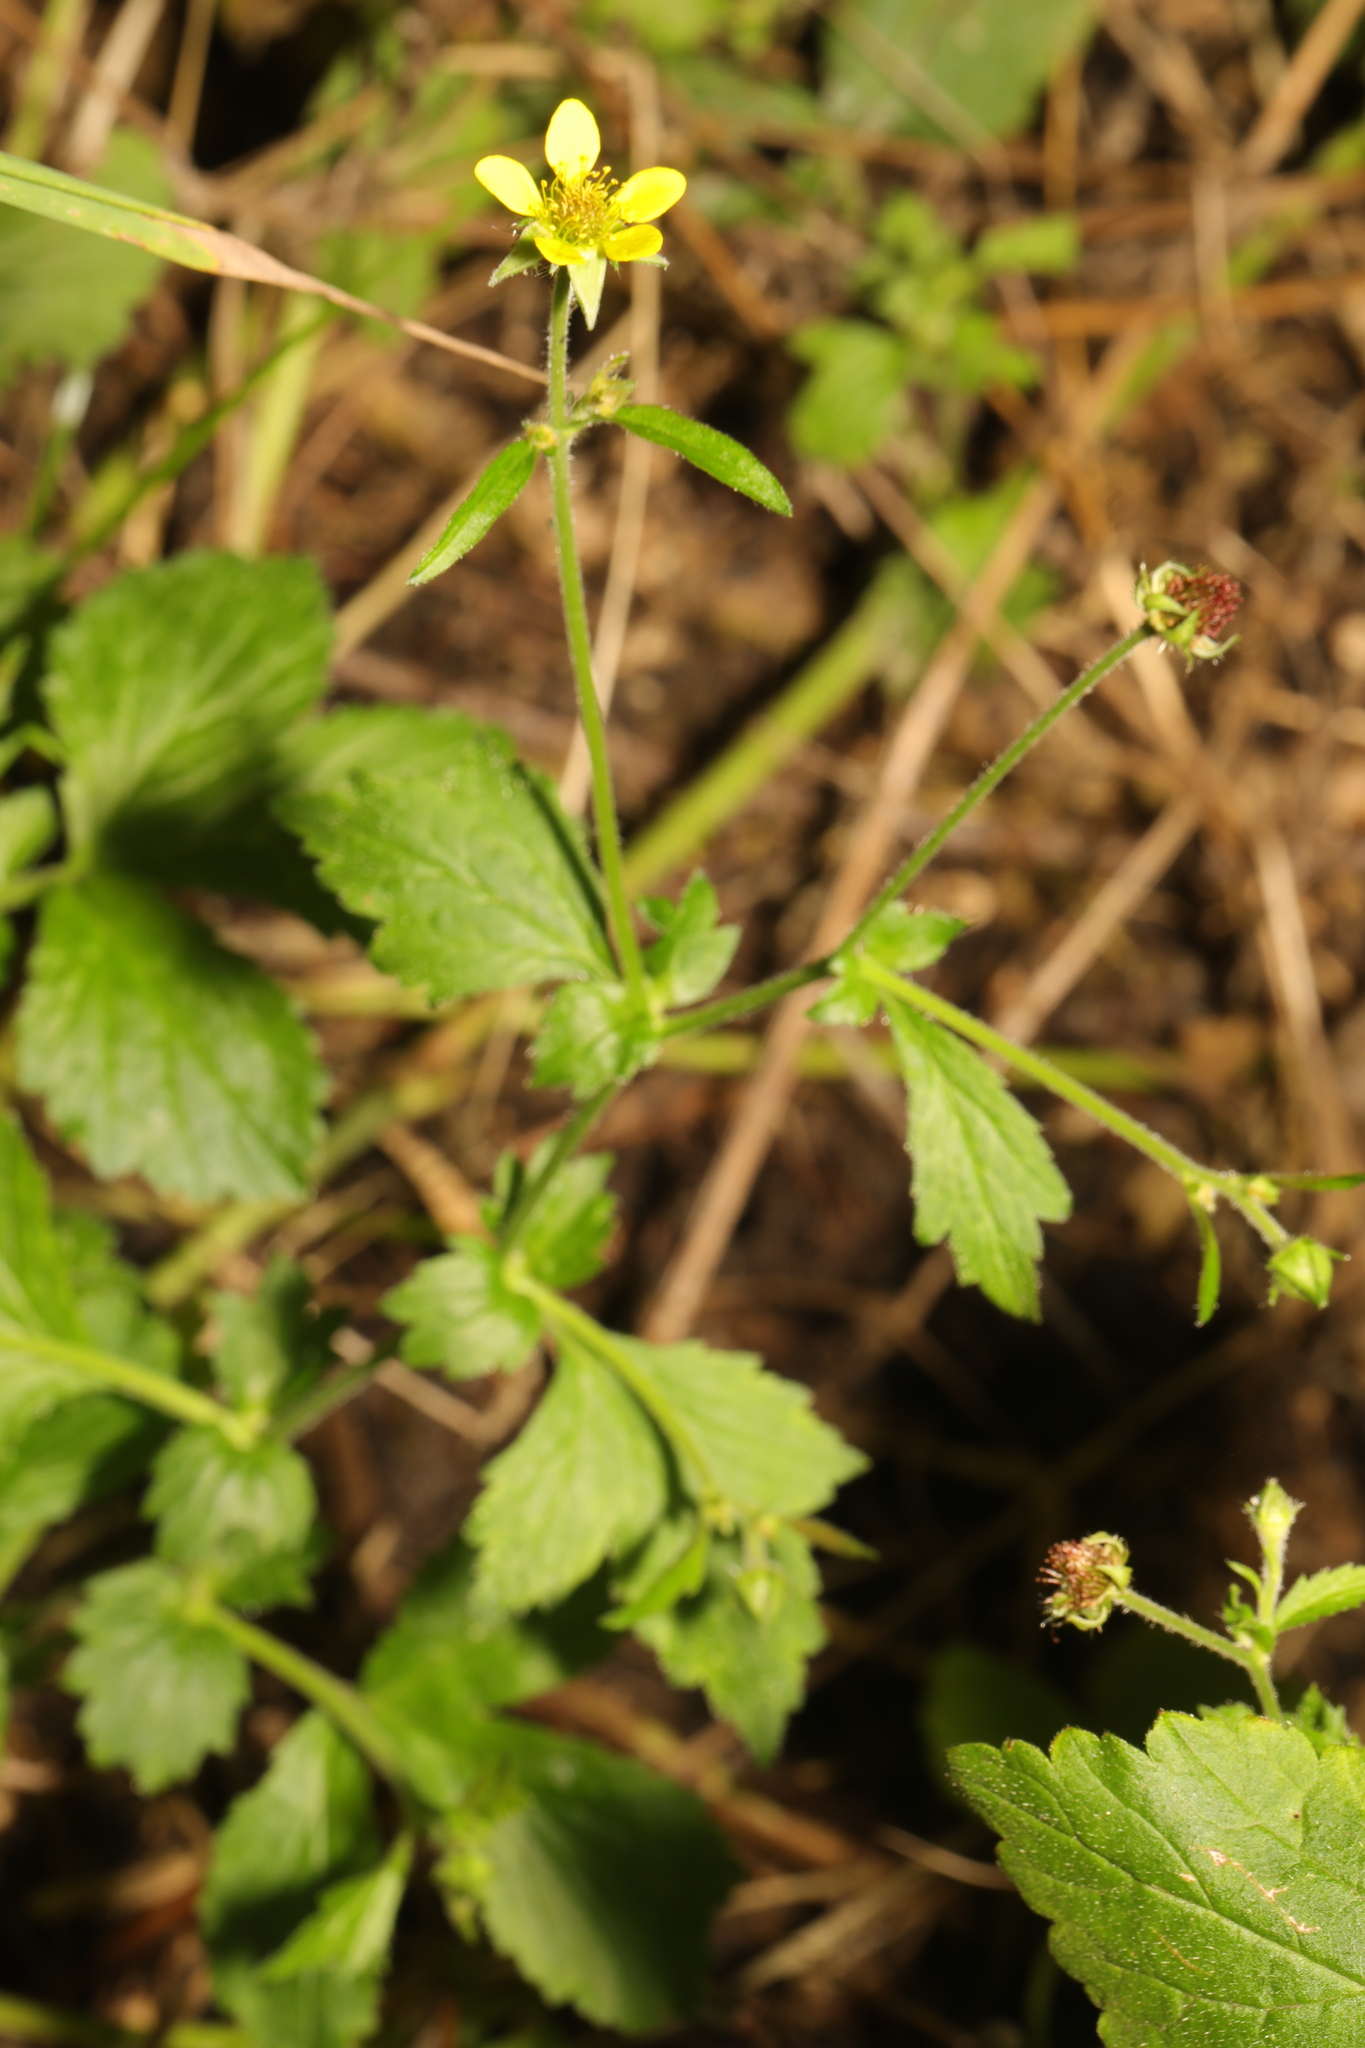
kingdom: Plantae
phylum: Tracheophyta
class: Magnoliopsida
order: Rosales
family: Rosaceae
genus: Geum
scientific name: Geum urbanum
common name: Wood avens
